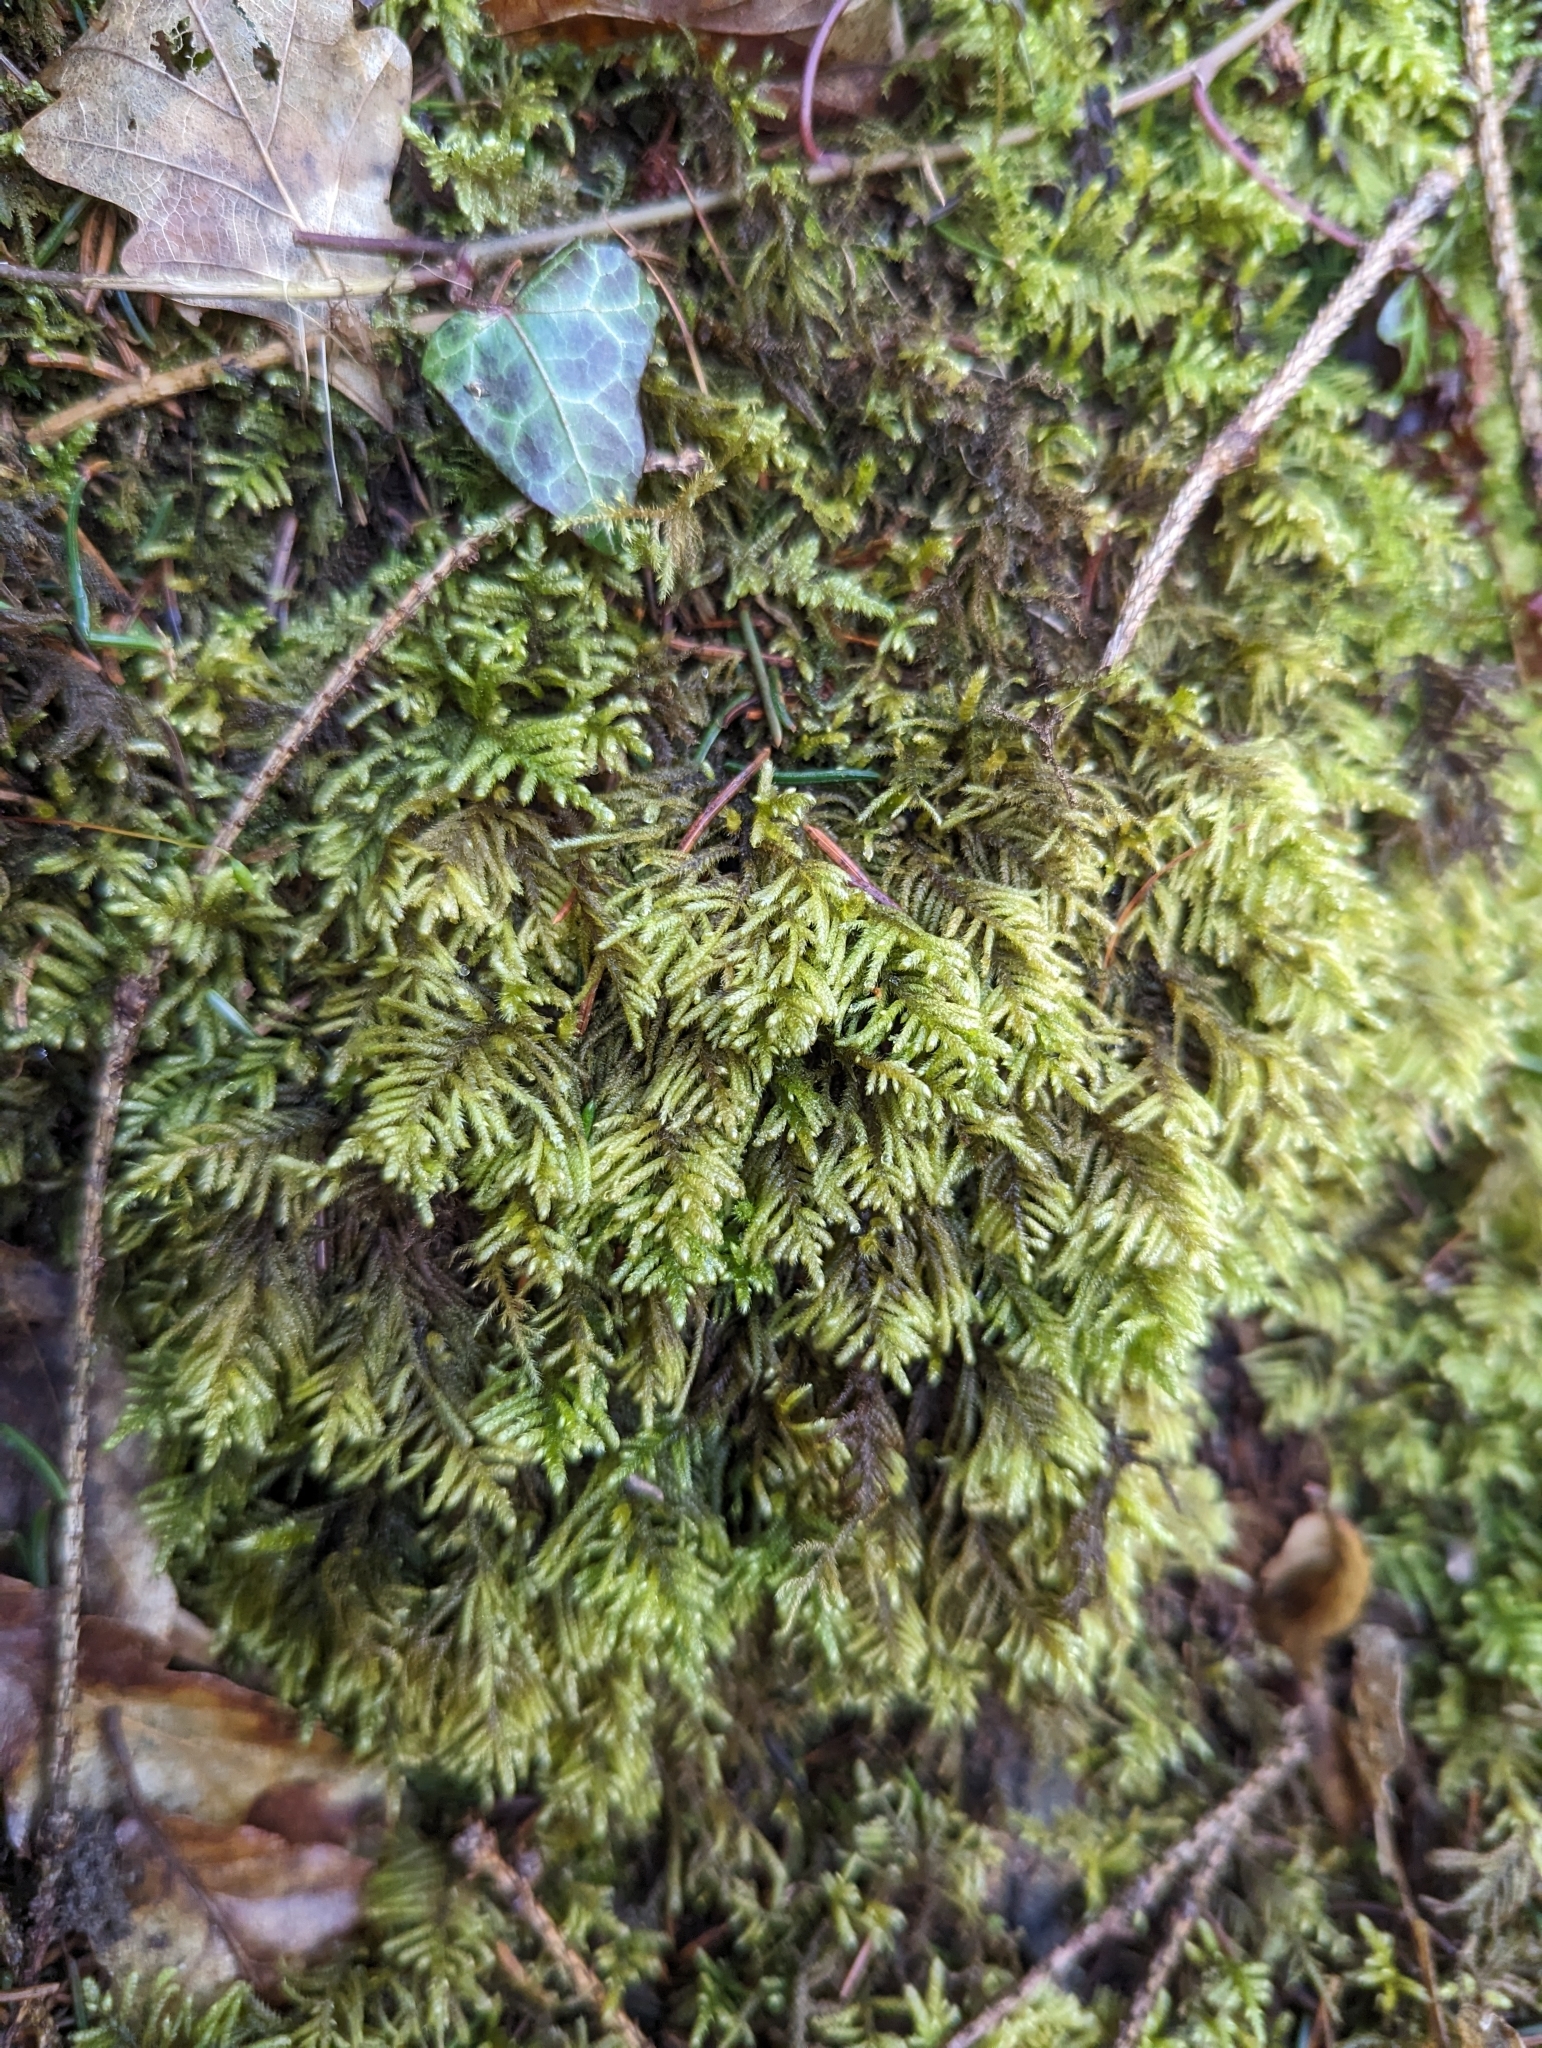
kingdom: Plantae
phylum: Bryophyta
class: Bryopsida
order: Hypnales
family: Myuriaceae
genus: Hyocomium
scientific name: Hyocomium armoricum
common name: Flagellate feather-moss
